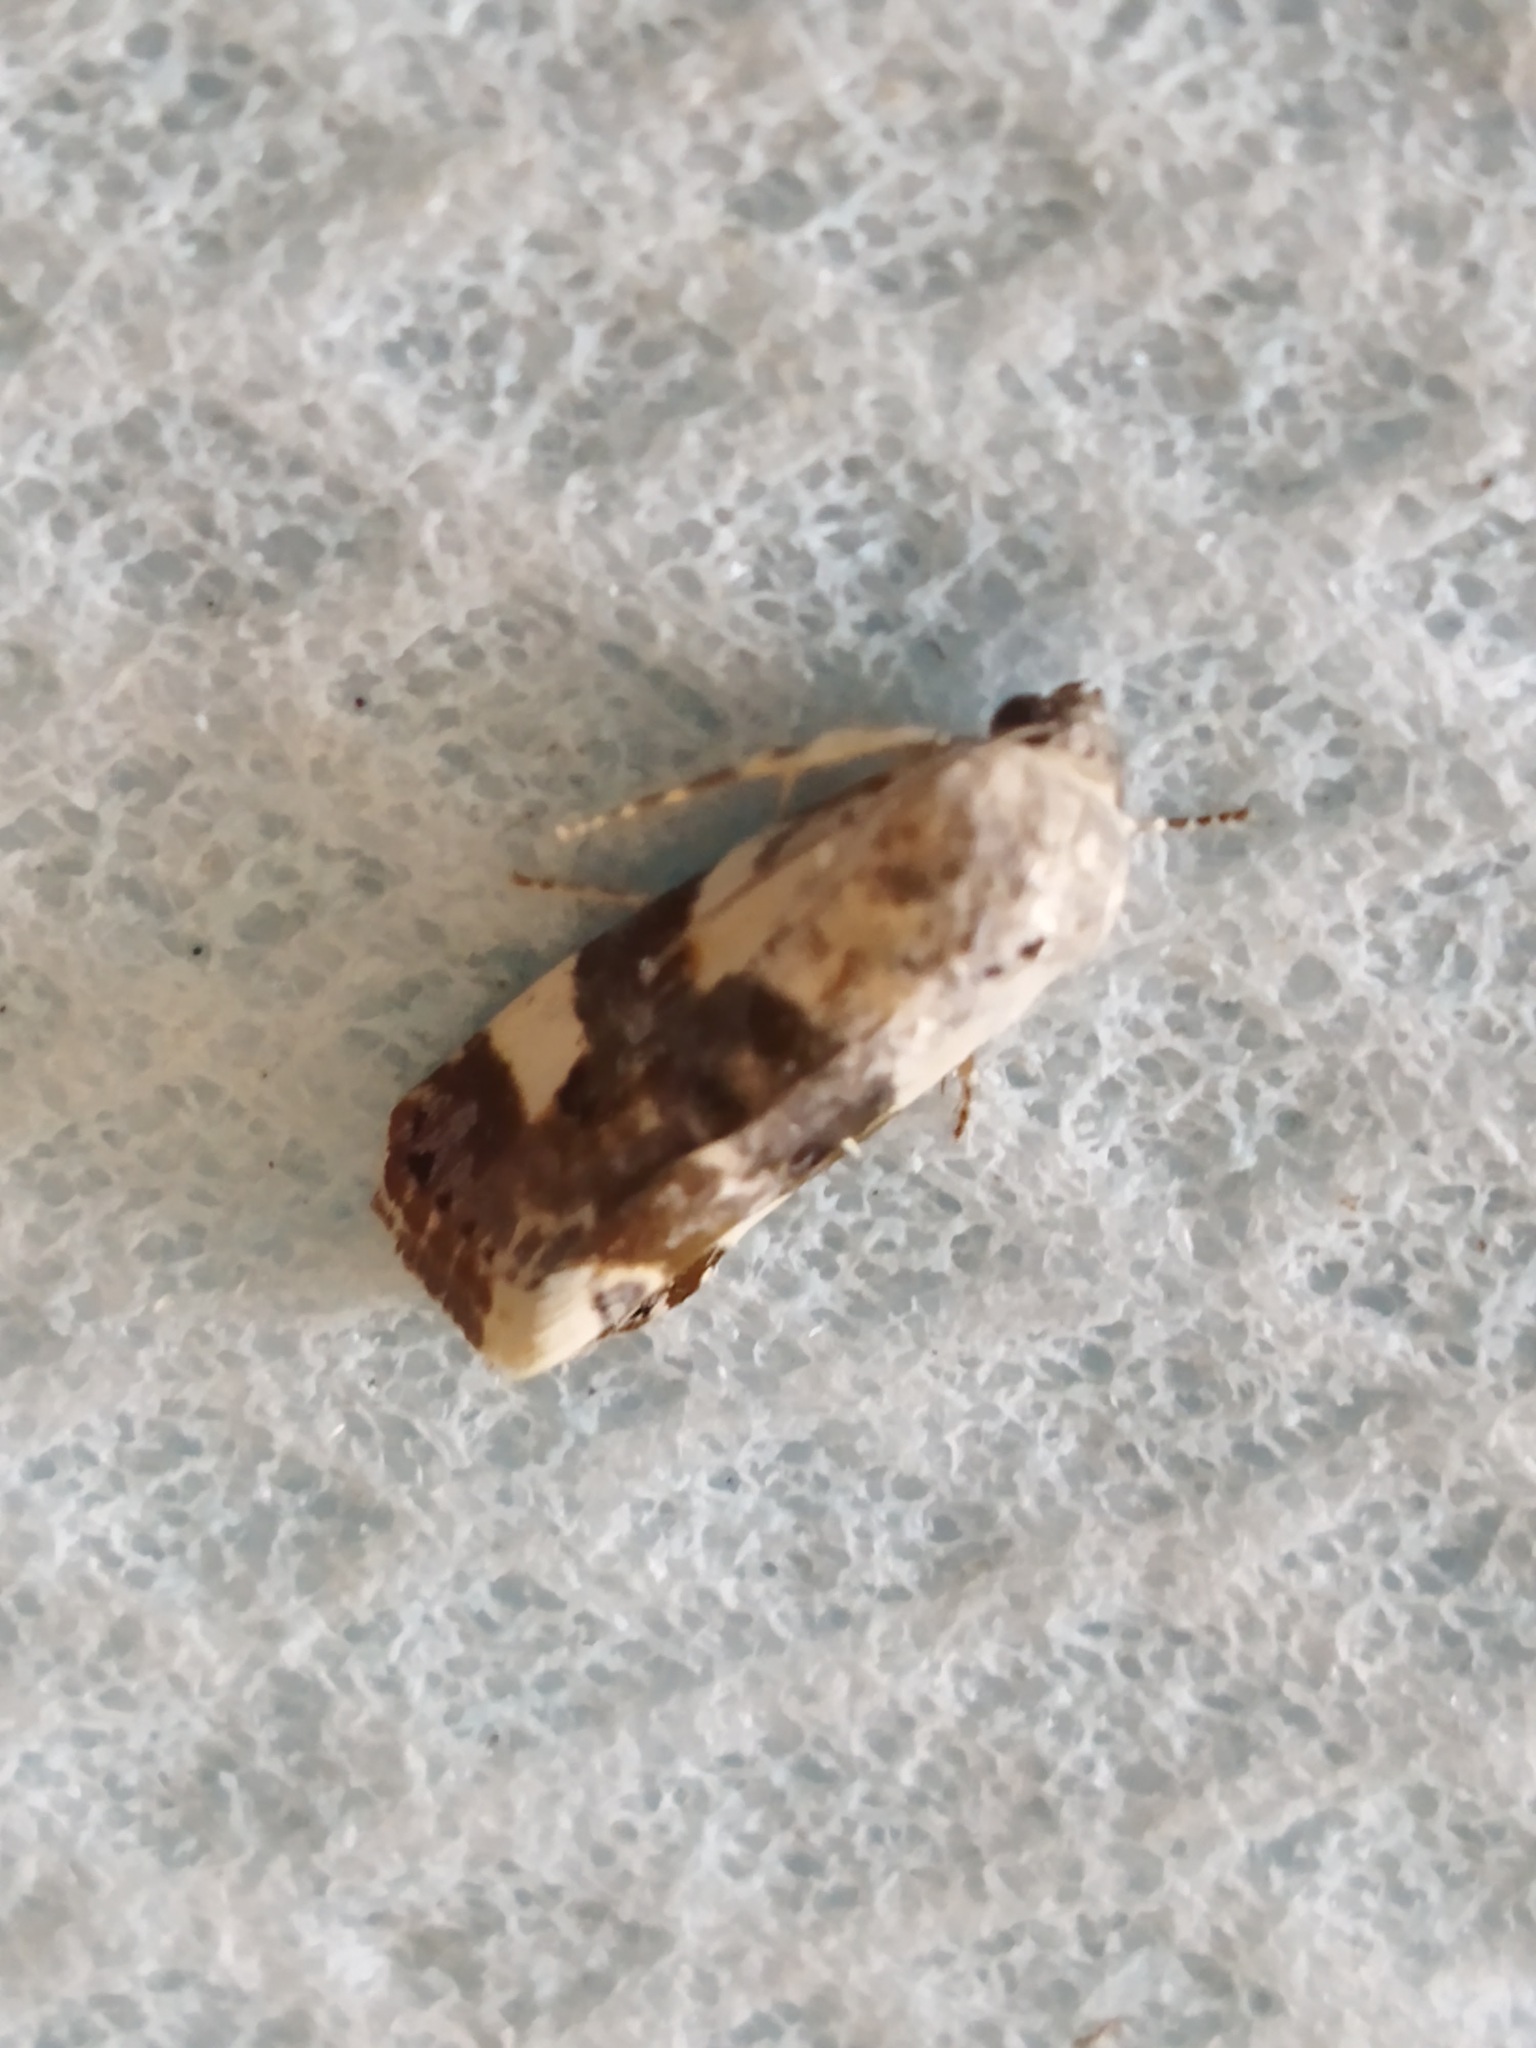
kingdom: Animalia
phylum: Arthropoda
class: Insecta
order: Lepidoptera
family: Noctuidae
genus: Acontia
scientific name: Acontia lucida
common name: Pale shoulder
